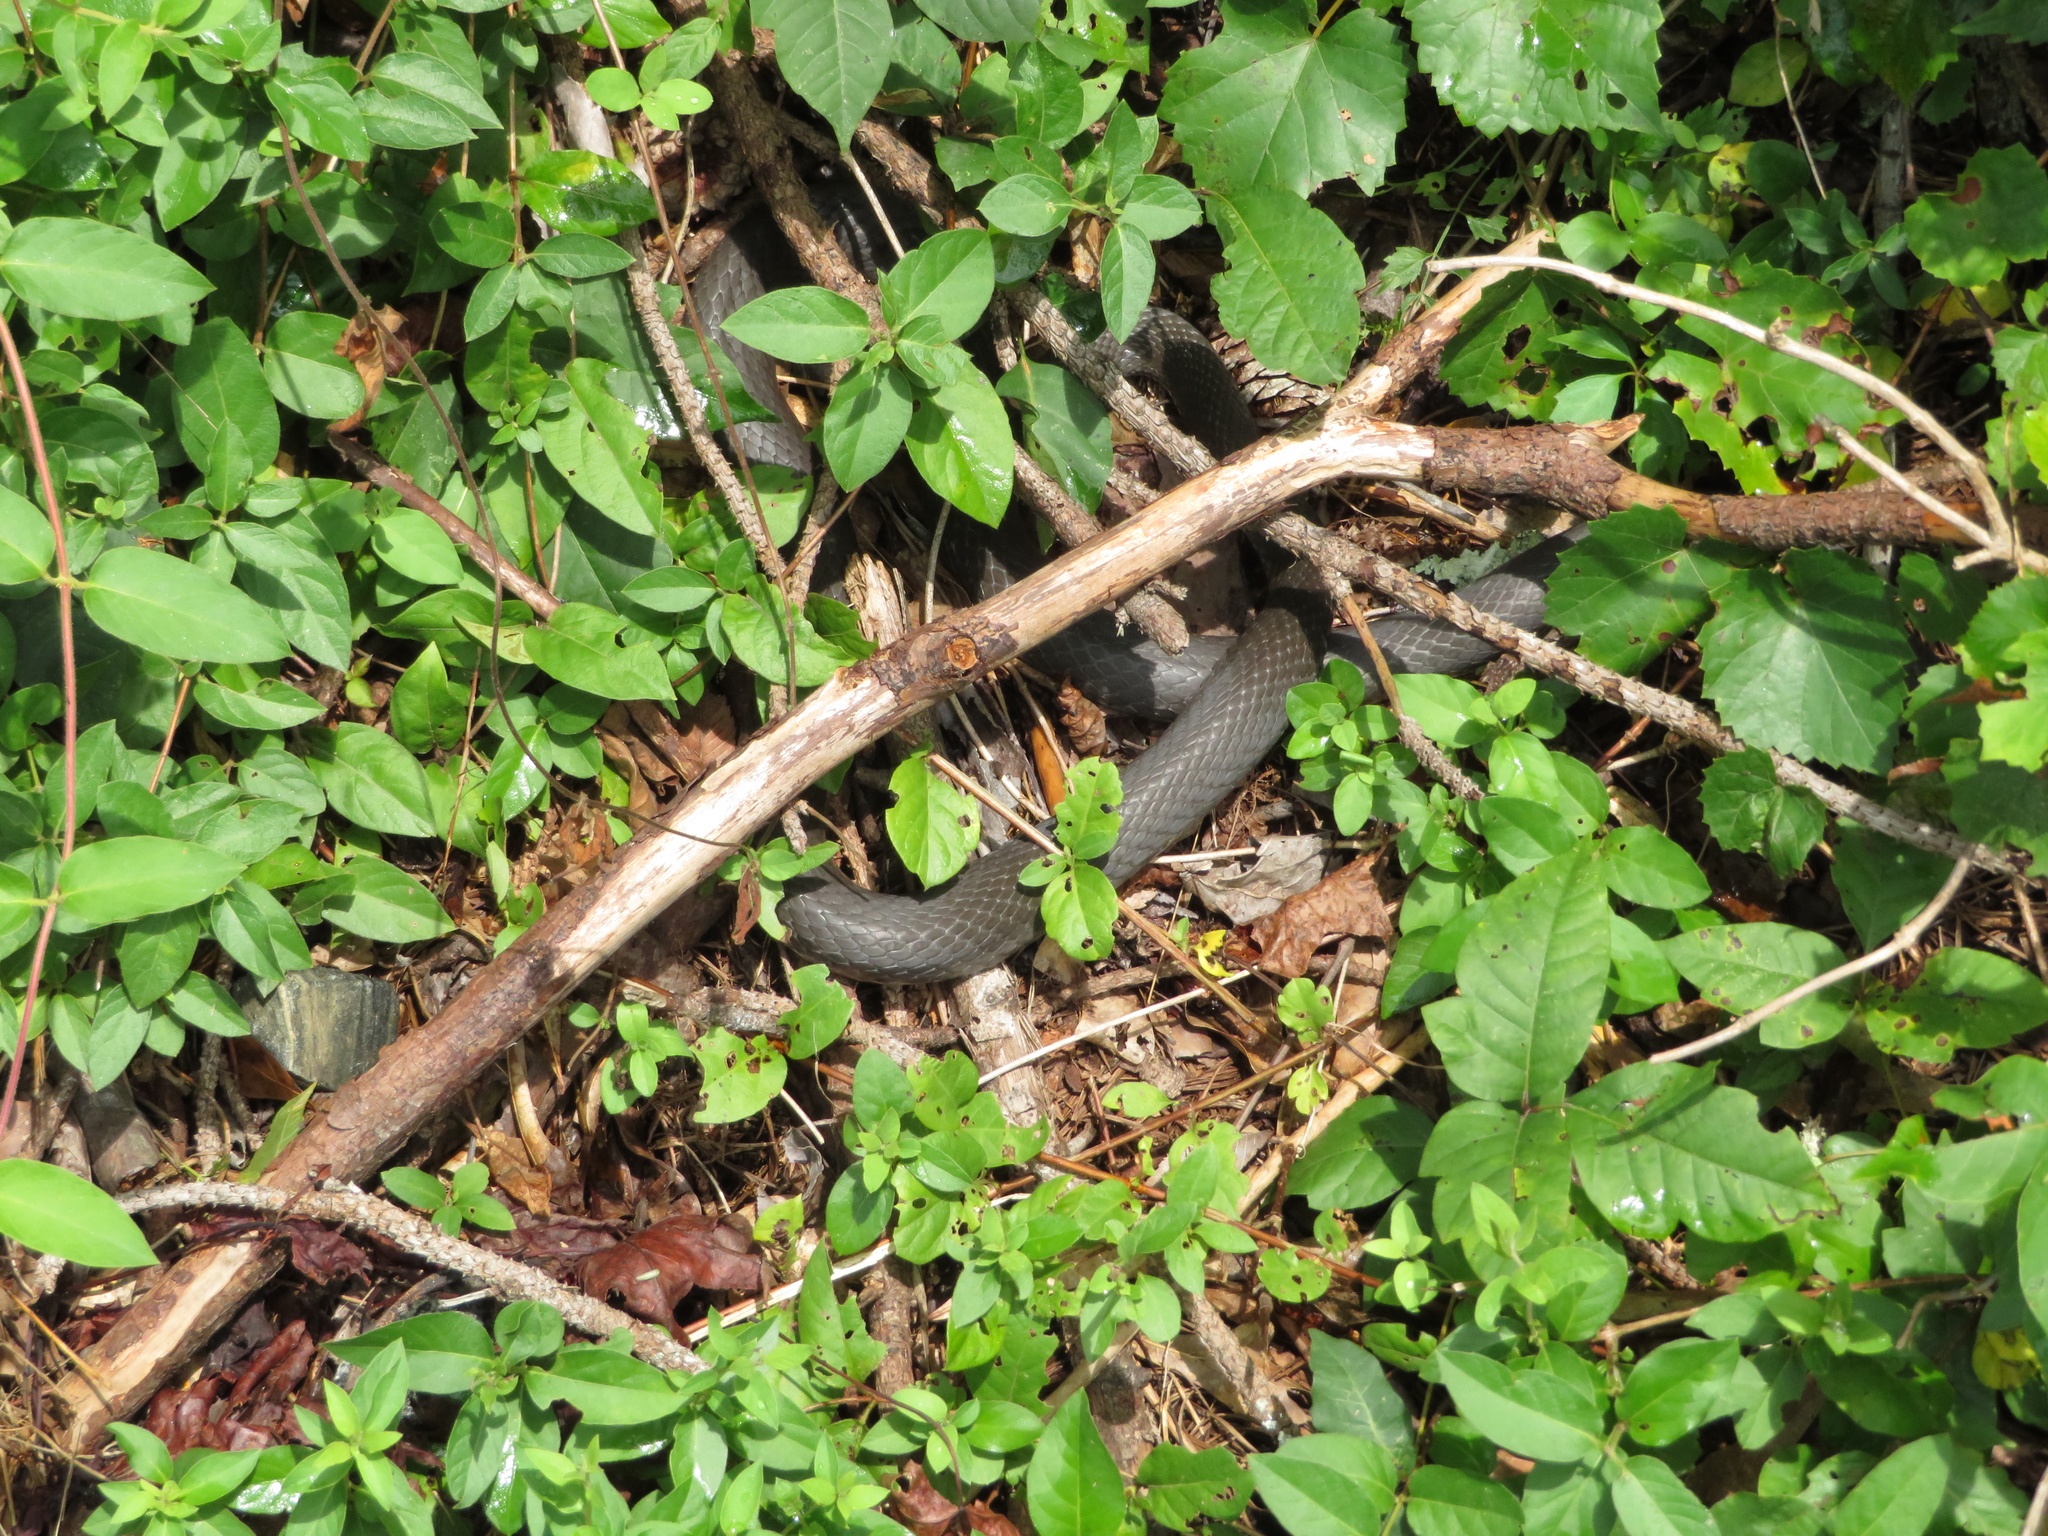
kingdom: Animalia
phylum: Chordata
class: Squamata
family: Colubridae
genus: Coluber
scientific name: Coluber constrictor
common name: Eastern racer
